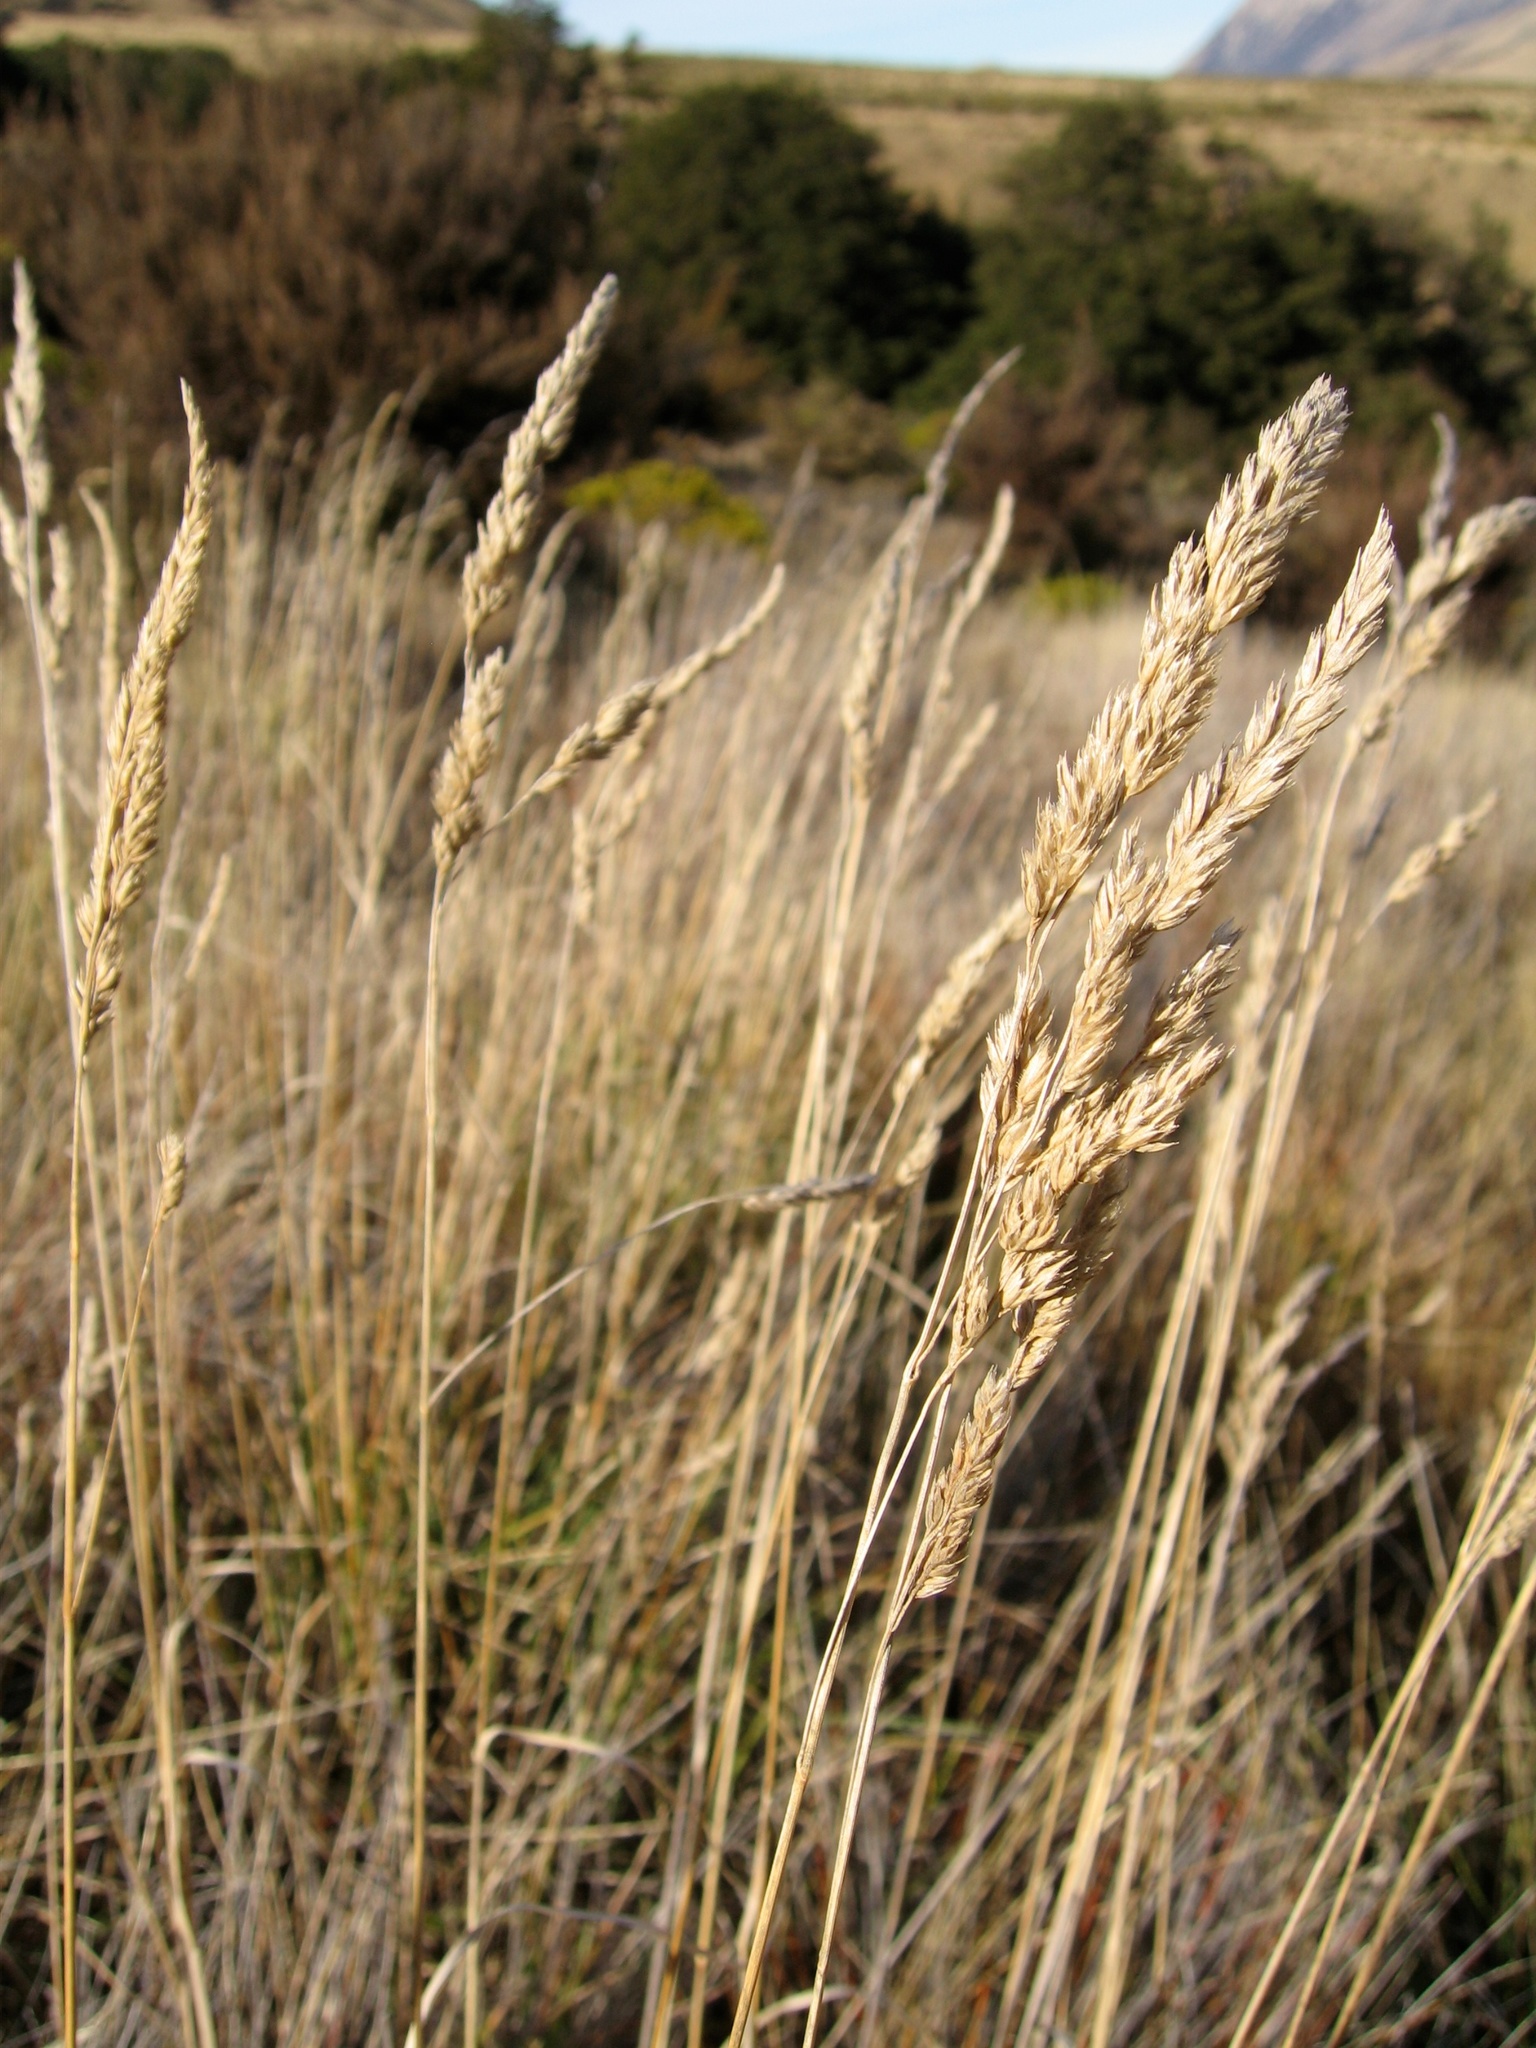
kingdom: Plantae
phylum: Tracheophyta
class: Liliopsida
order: Poales
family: Poaceae
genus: Dactylis
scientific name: Dactylis glomerata
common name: Orchardgrass
